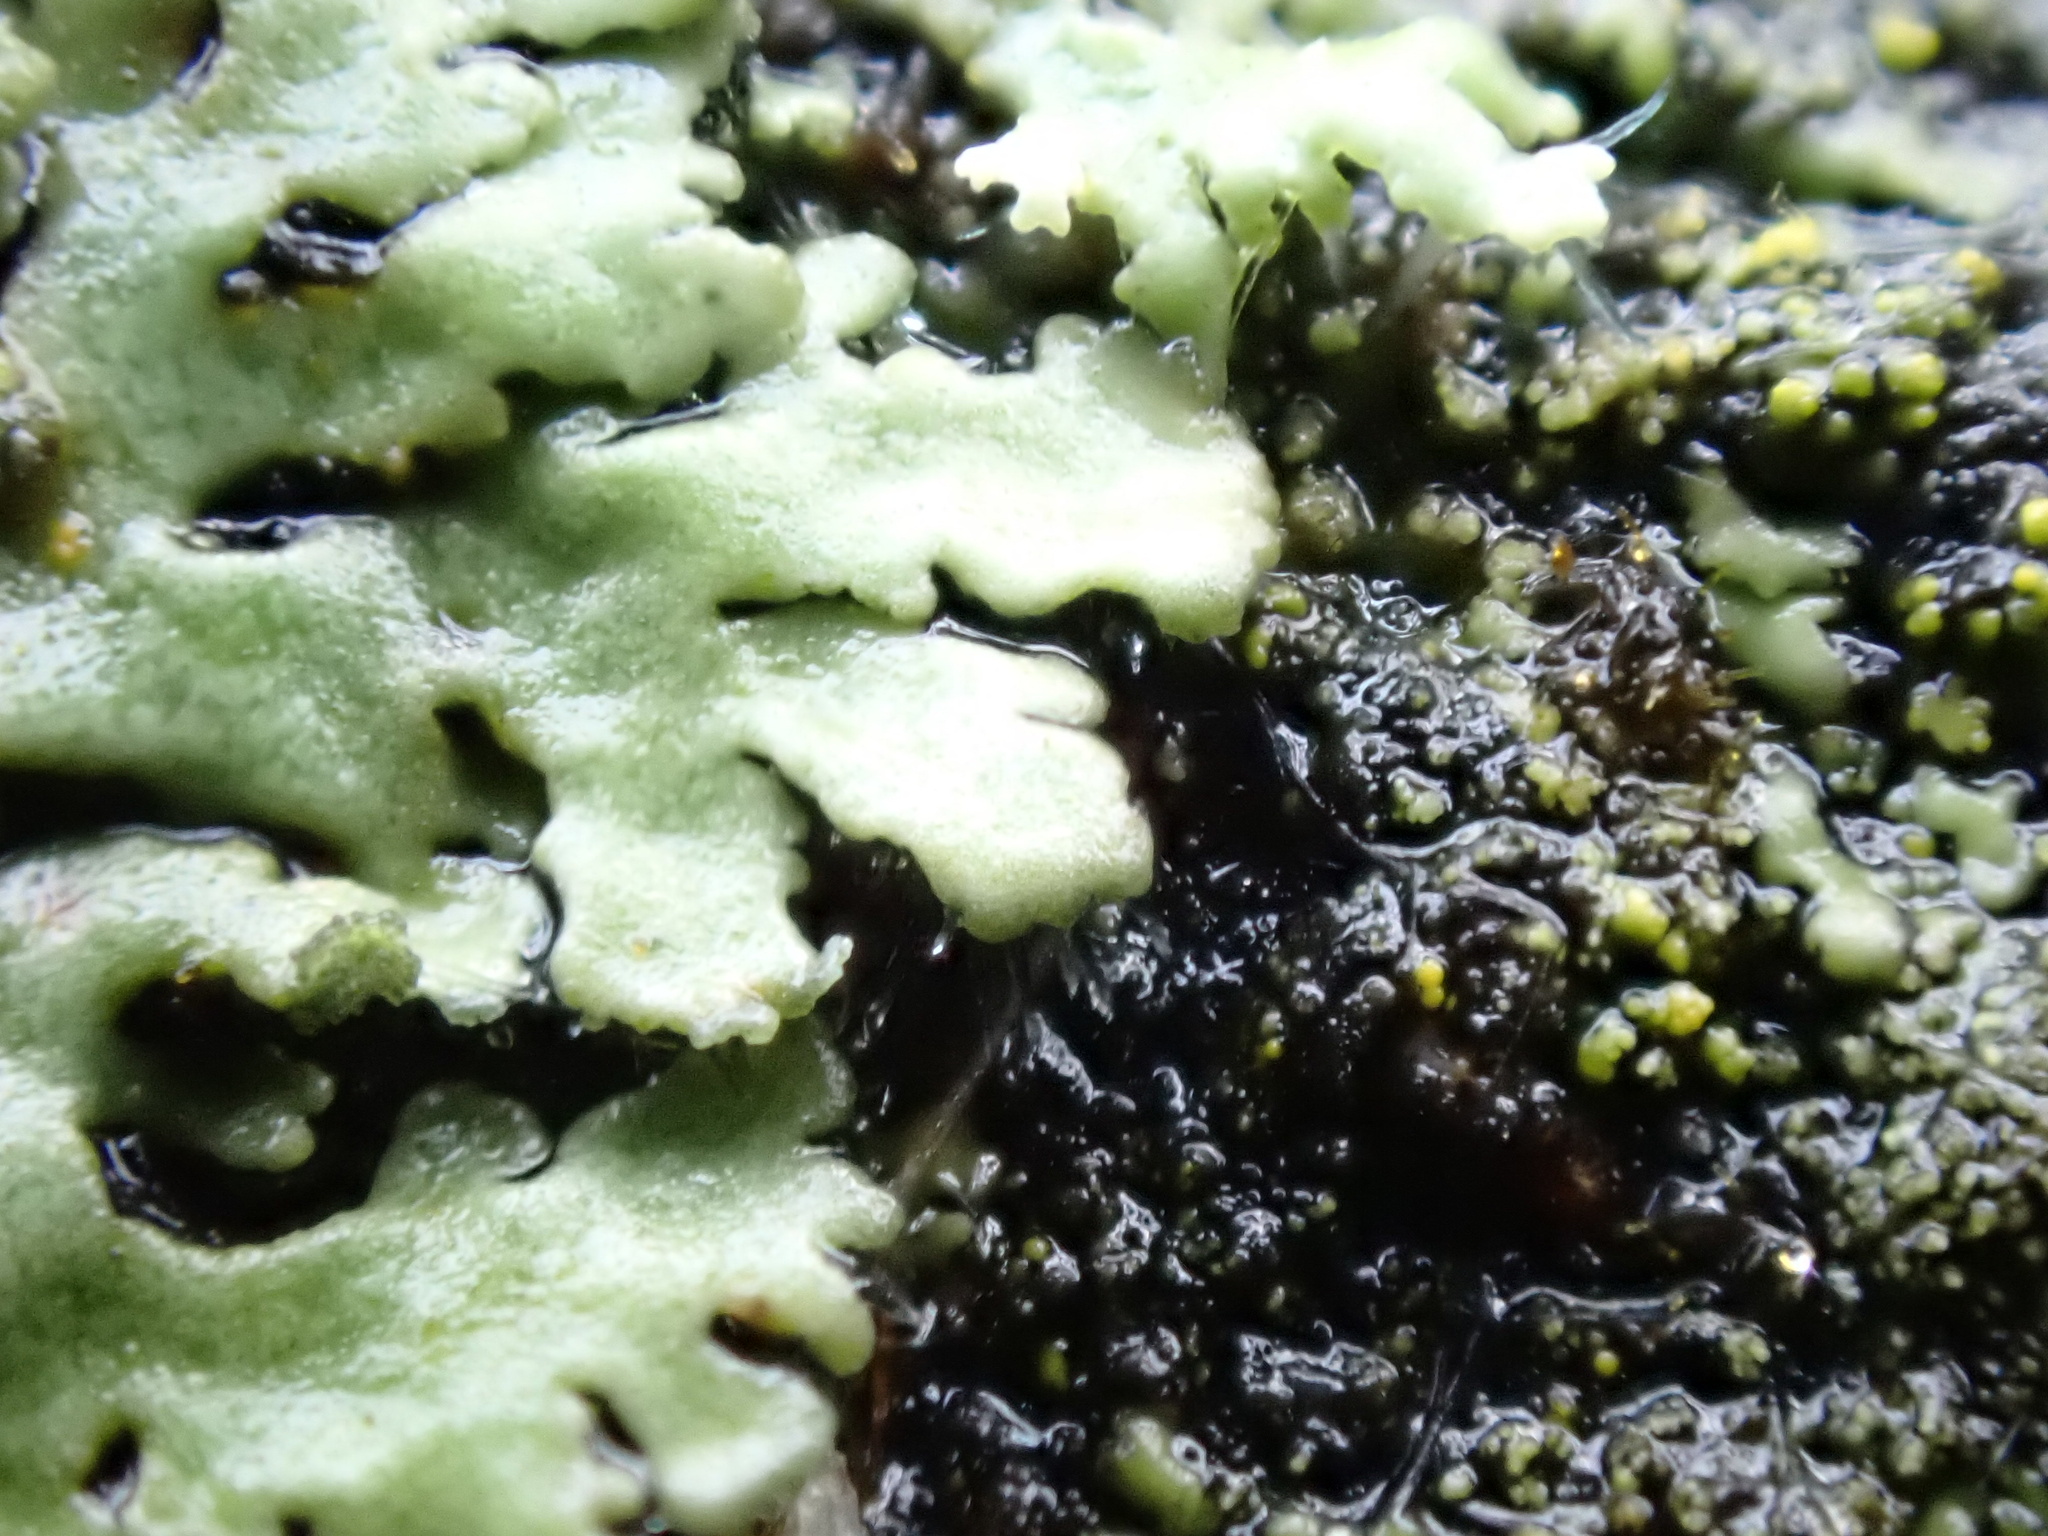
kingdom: Fungi
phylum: Ascomycota
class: Lecanoromycetes
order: Caliciales
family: Physciaceae
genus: Phaeophyscia
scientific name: Phaeophyscia orbicularis
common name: Mealy shadow lichen
